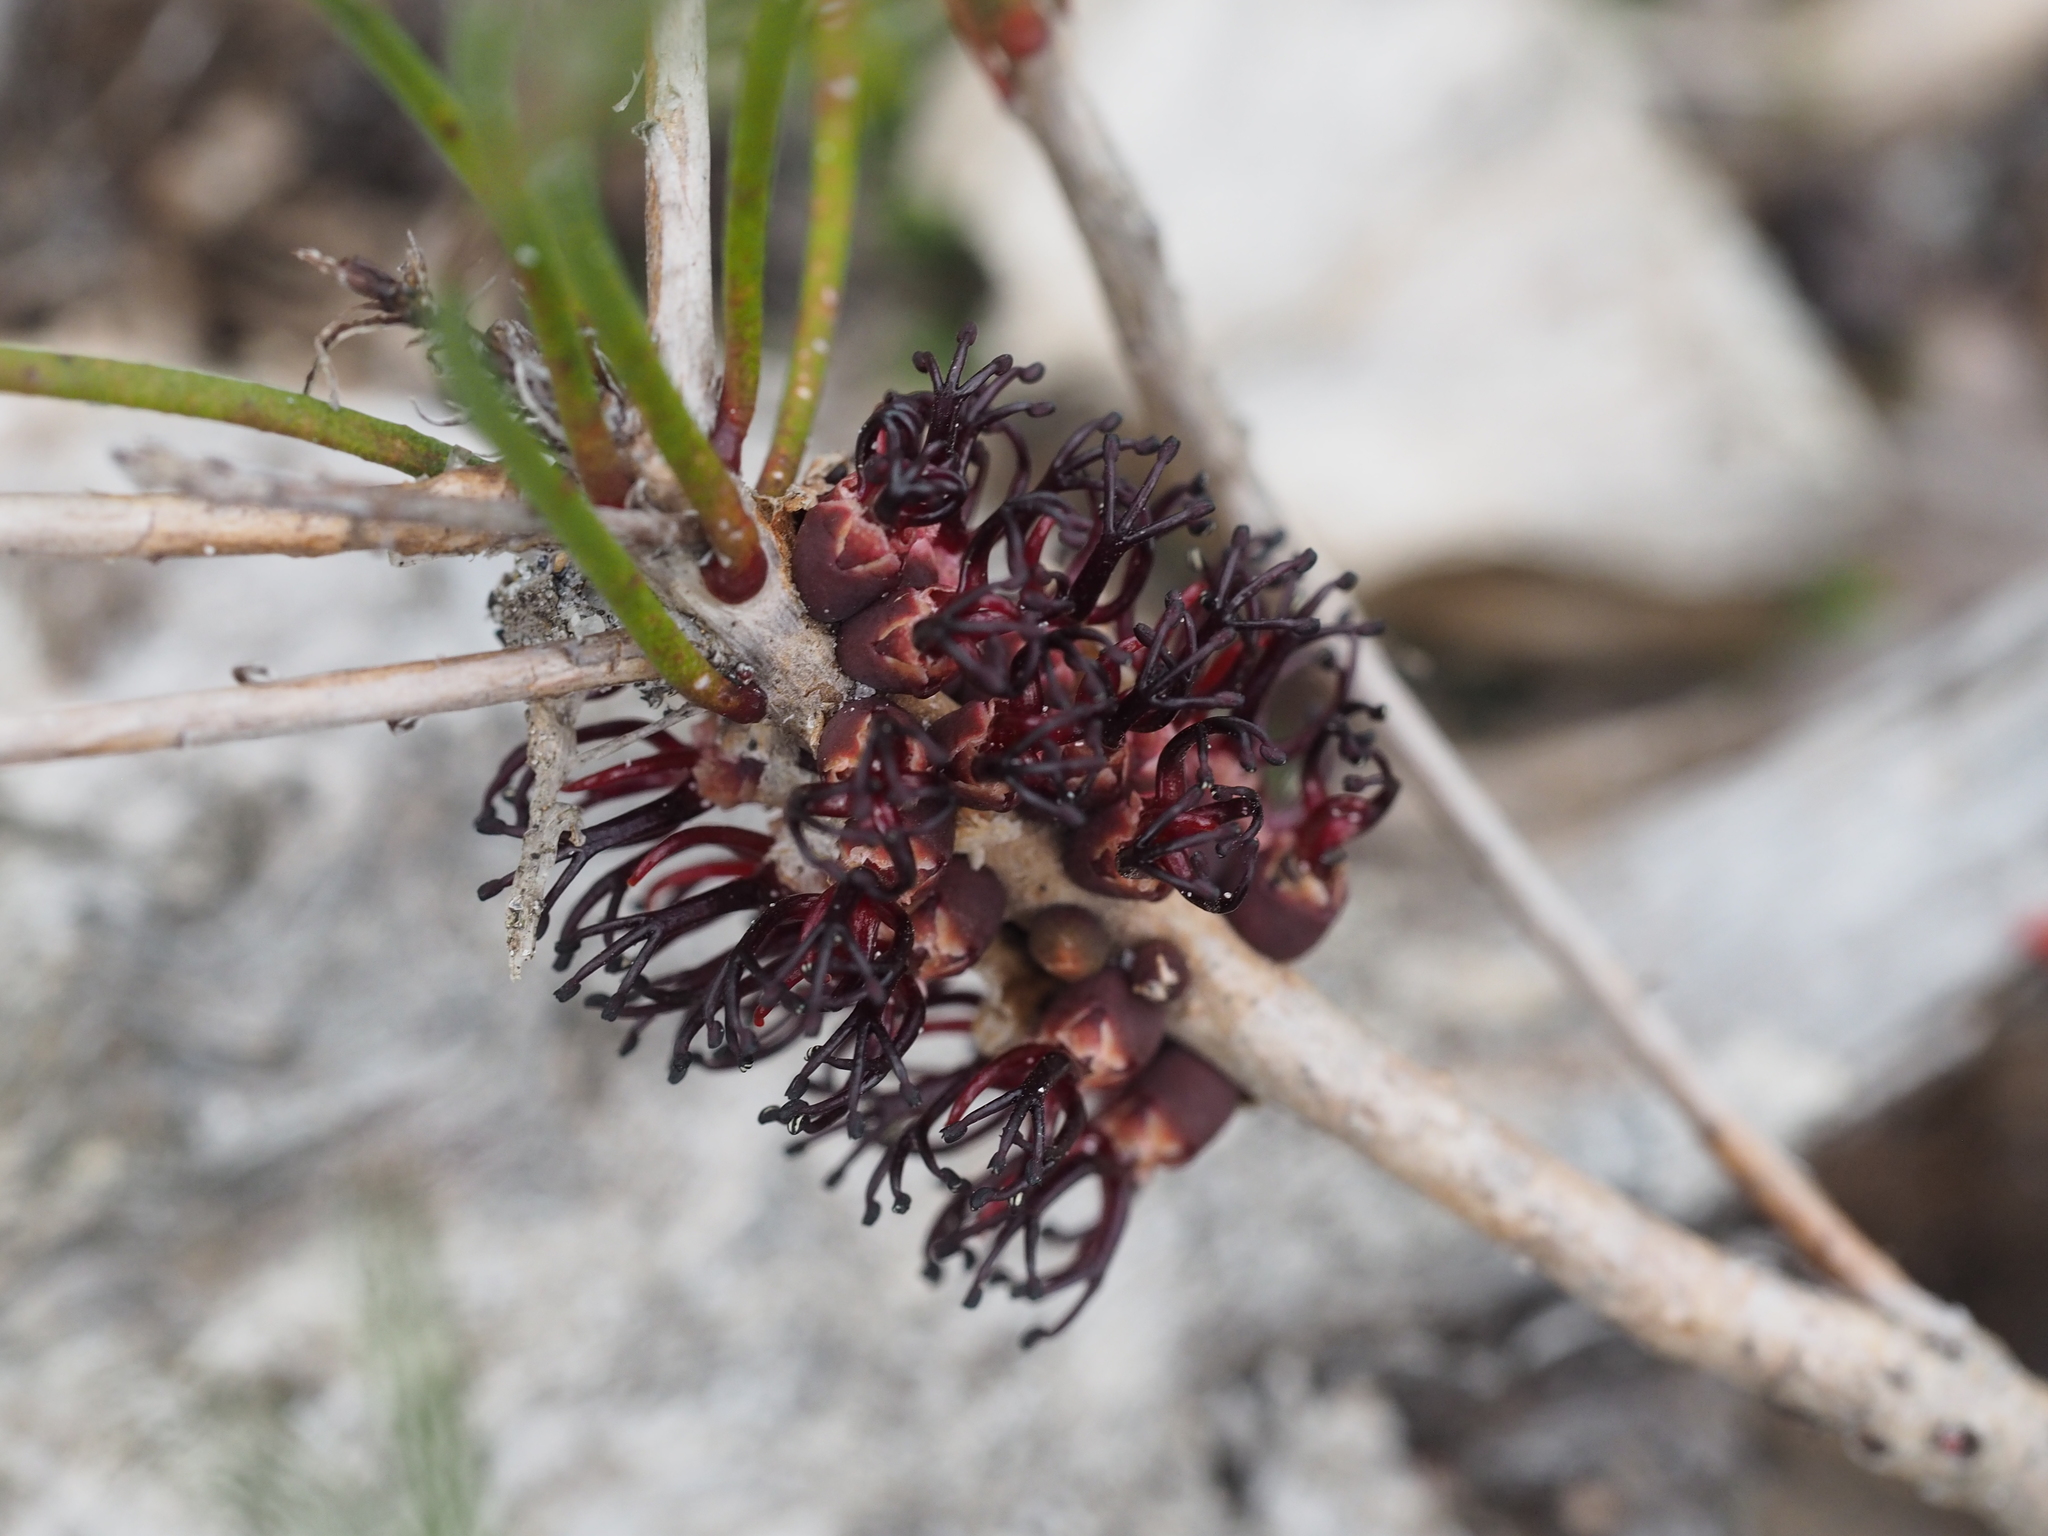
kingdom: Plantae
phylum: Tracheophyta
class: Magnoliopsida
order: Myrtales
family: Myrtaceae
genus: Melaleuca
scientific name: Melaleuca schaueri
